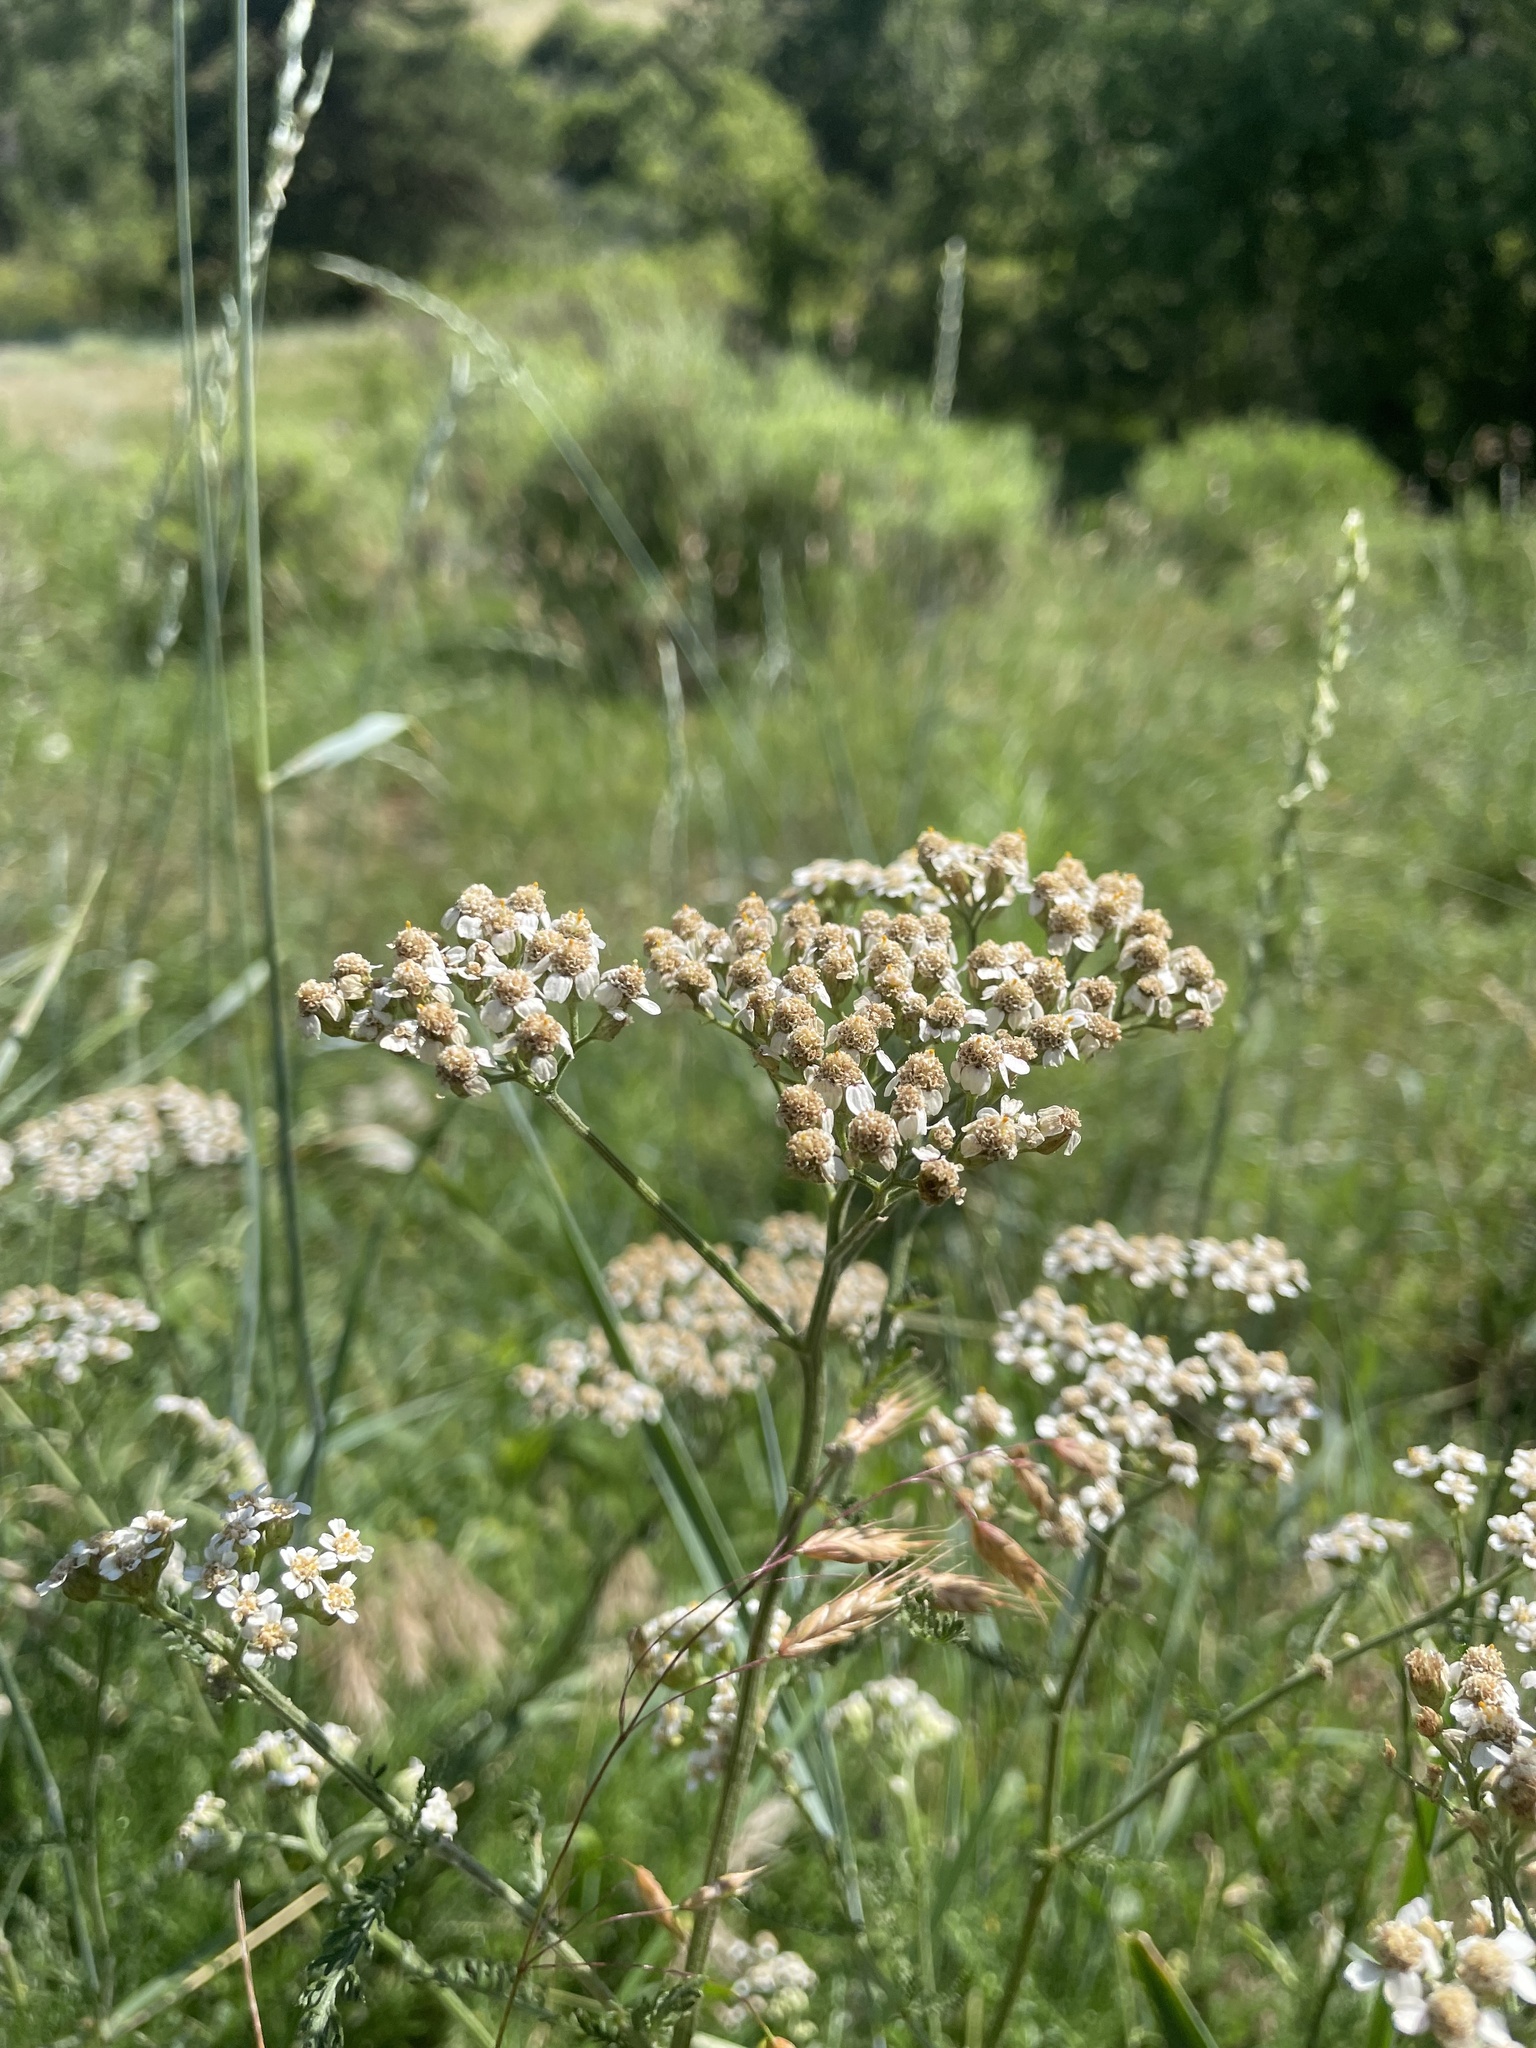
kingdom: Plantae
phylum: Tracheophyta
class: Magnoliopsida
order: Asterales
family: Asteraceae
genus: Achillea
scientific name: Achillea millefolium
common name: Yarrow
